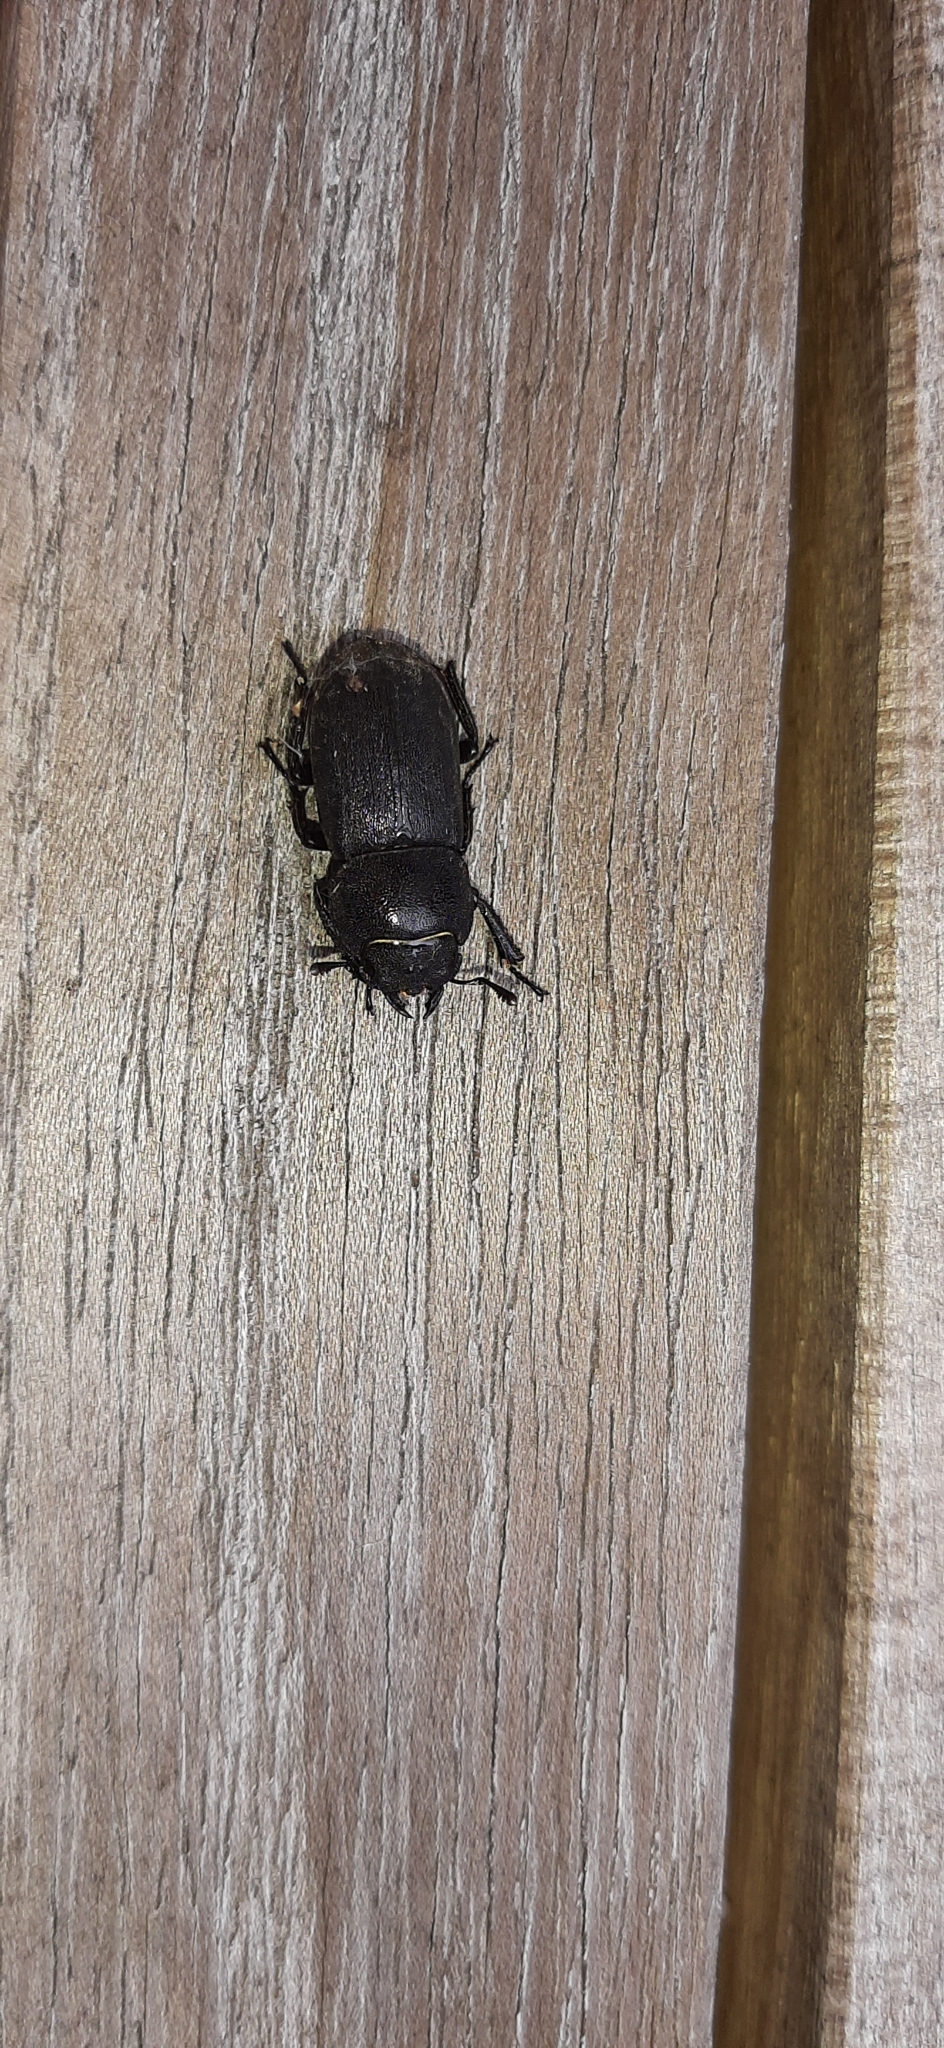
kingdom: Animalia
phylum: Arthropoda
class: Insecta
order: Coleoptera
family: Lucanidae
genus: Dorcus
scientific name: Dorcus parallelipipedus
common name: Lesser stag beetle
